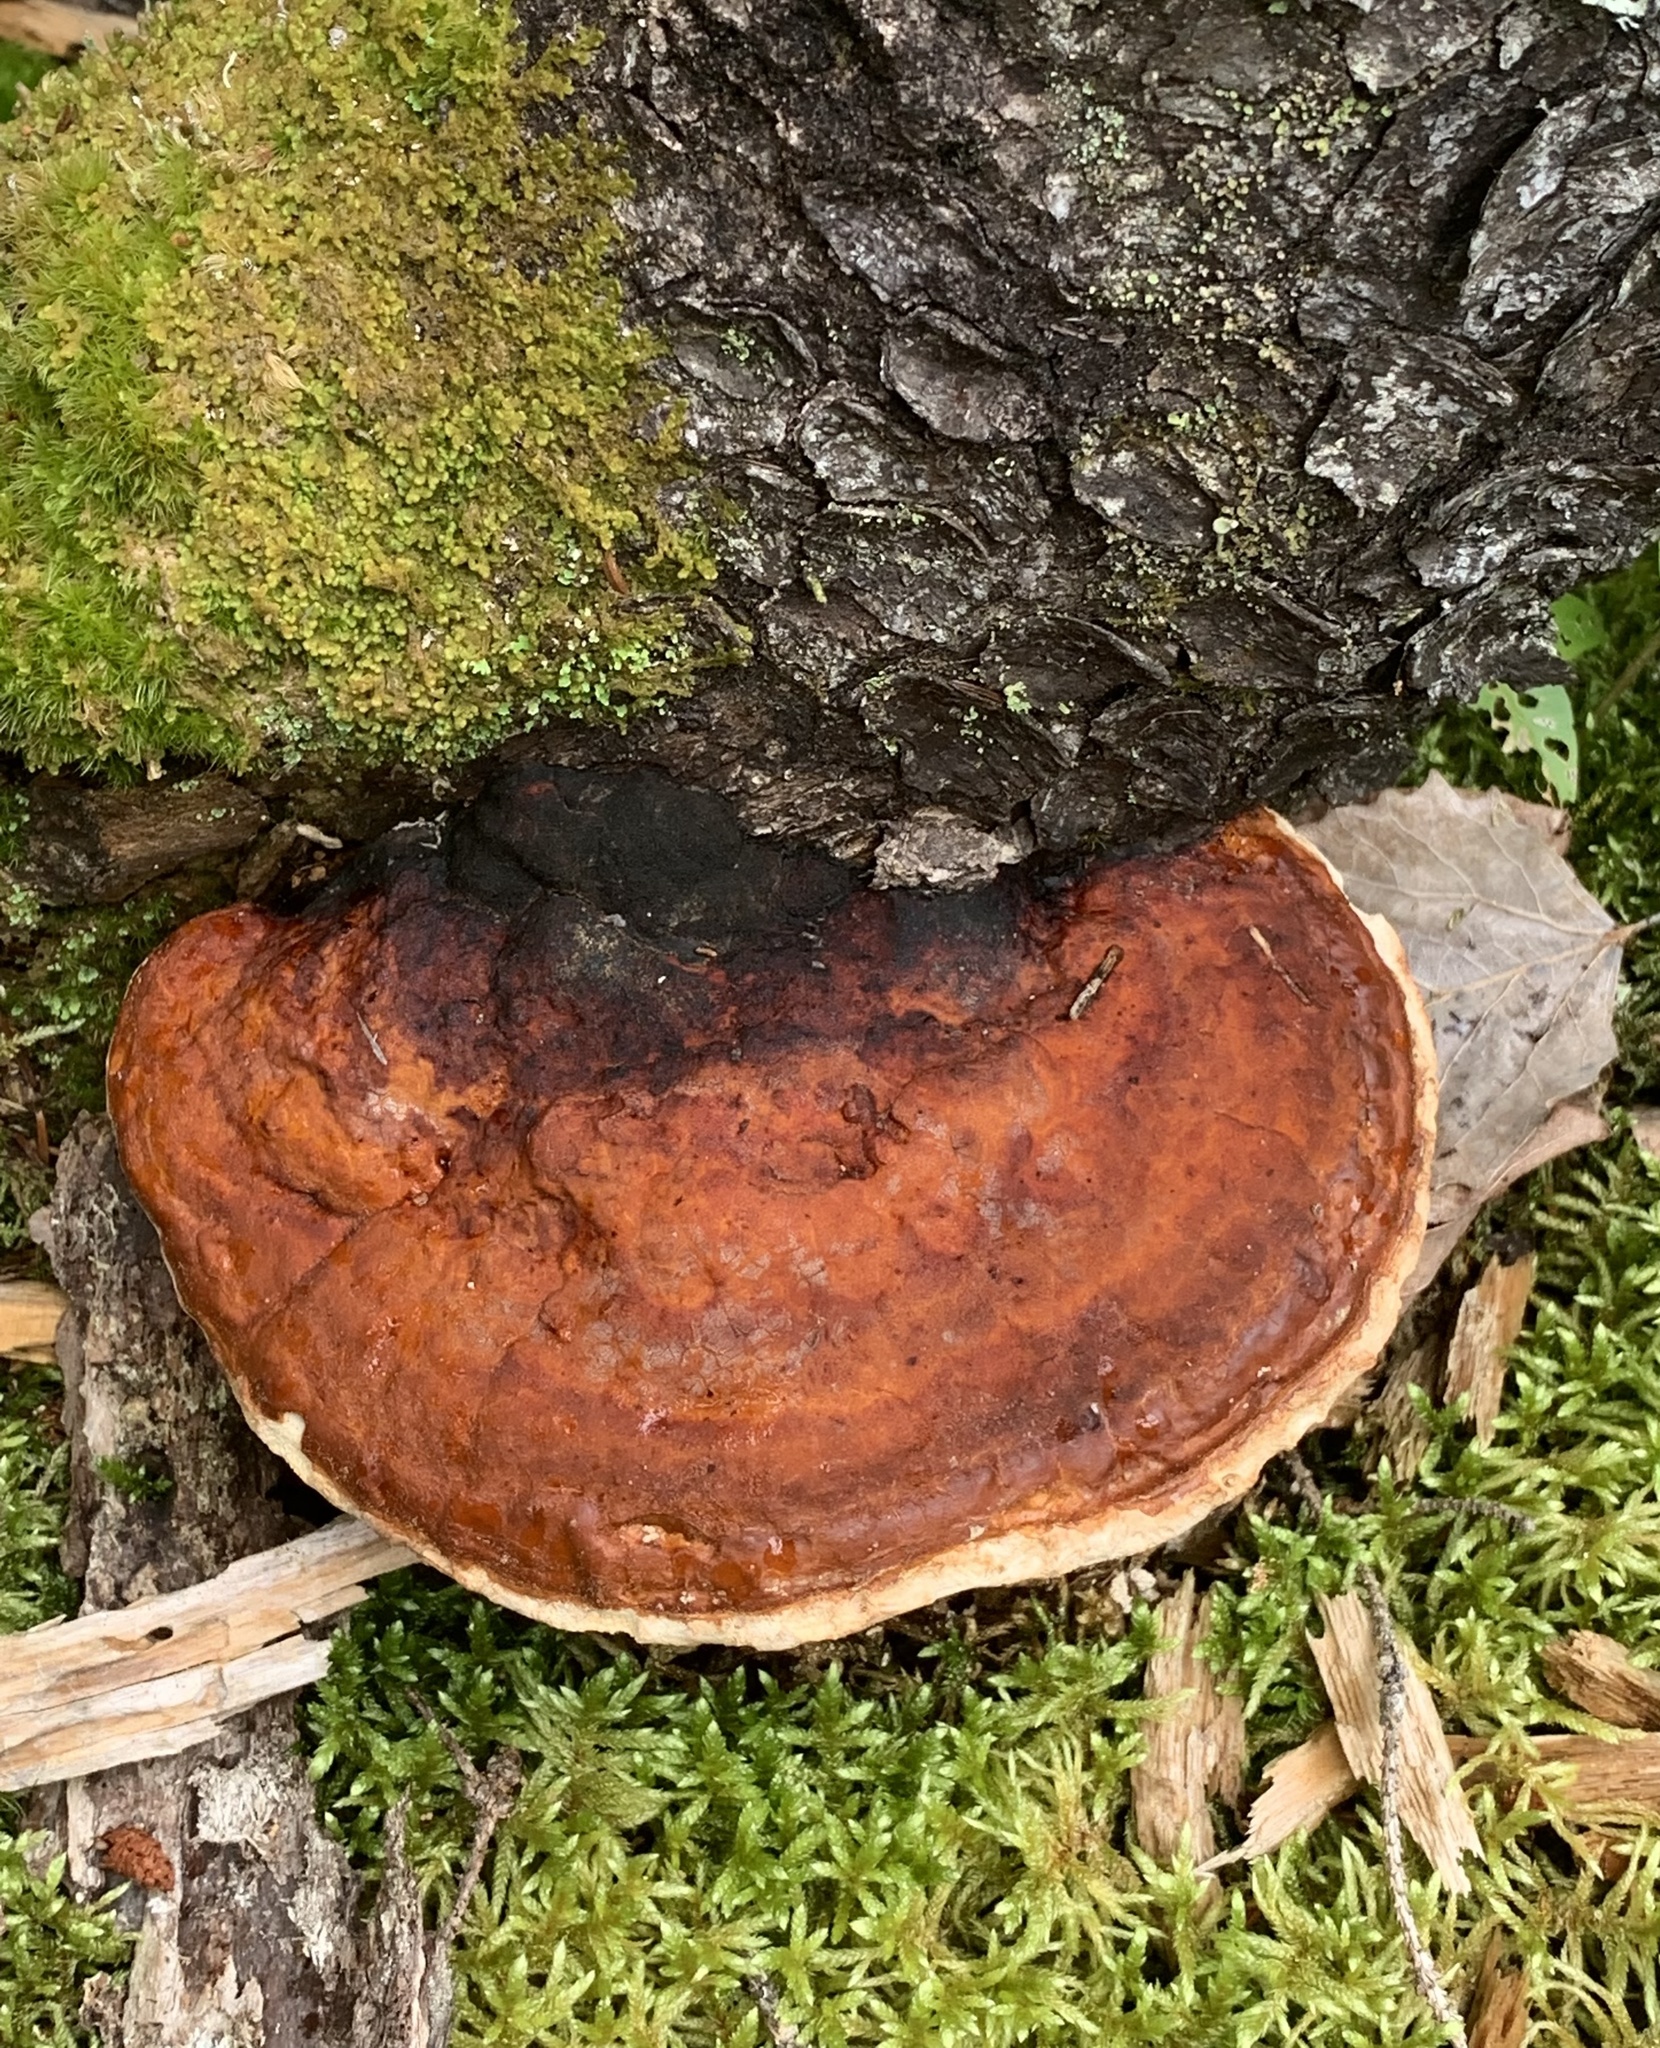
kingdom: Fungi
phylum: Basidiomycota
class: Agaricomycetes
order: Polyporales
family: Fomitopsidaceae
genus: Fomitopsis
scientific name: Fomitopsis mounceae
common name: Northern red belt
